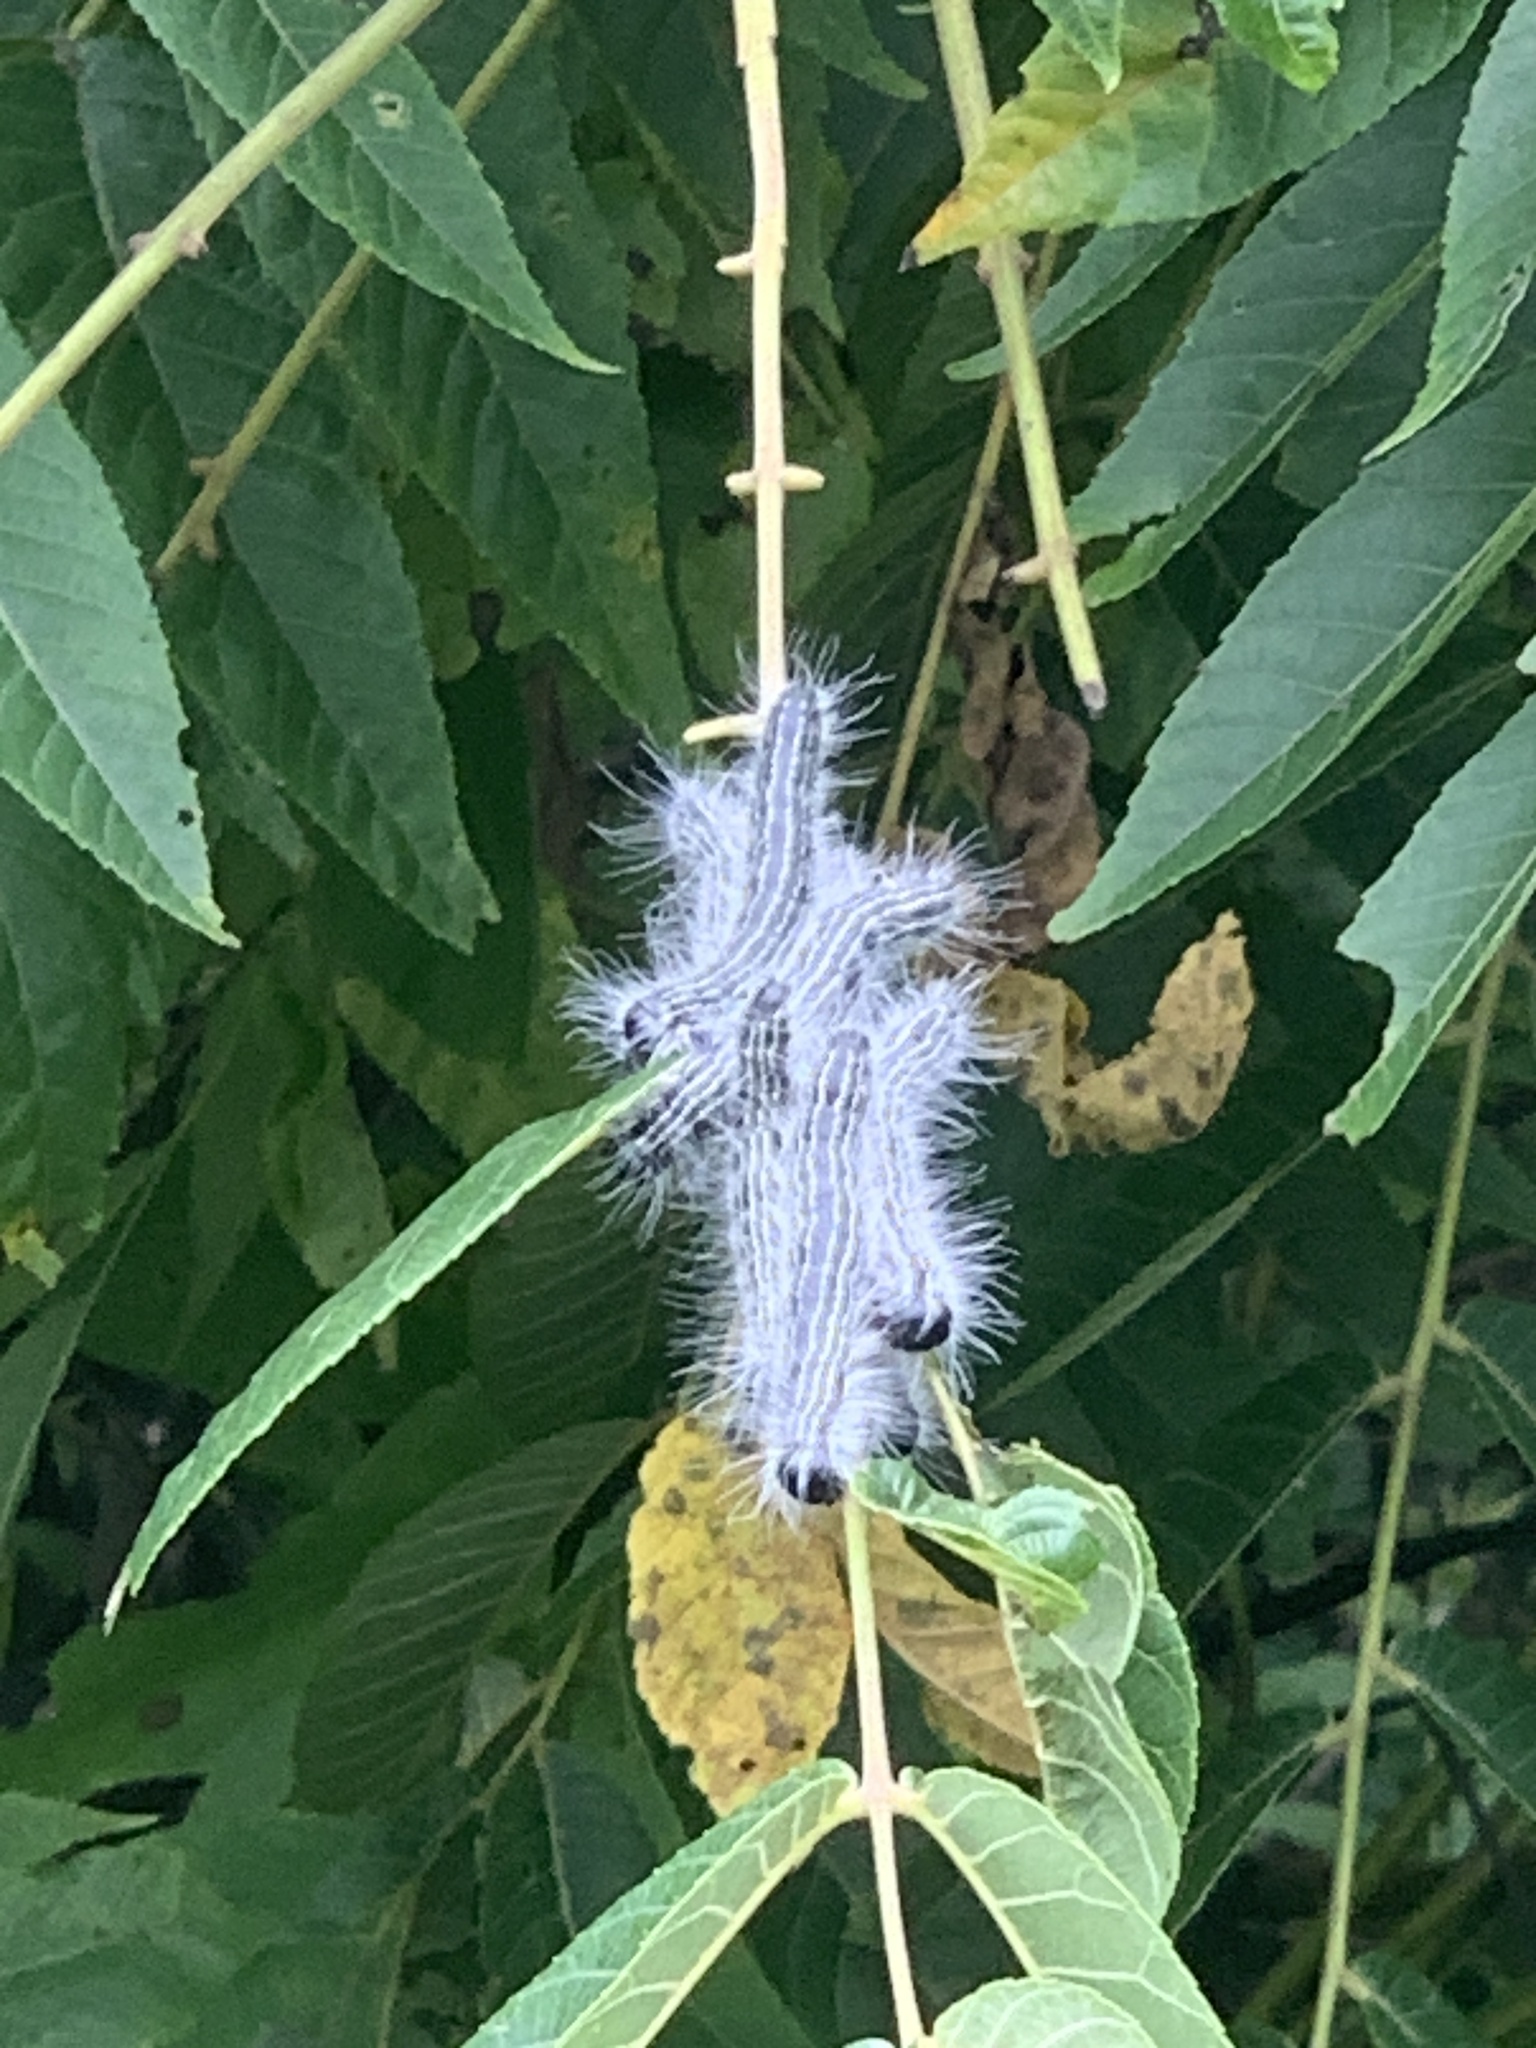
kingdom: Animalia
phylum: Arthropoda
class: Insecta
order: Lepidoptera
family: Notodontidae
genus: Datana
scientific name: Datana integerrima
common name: Walnut caterpillar
